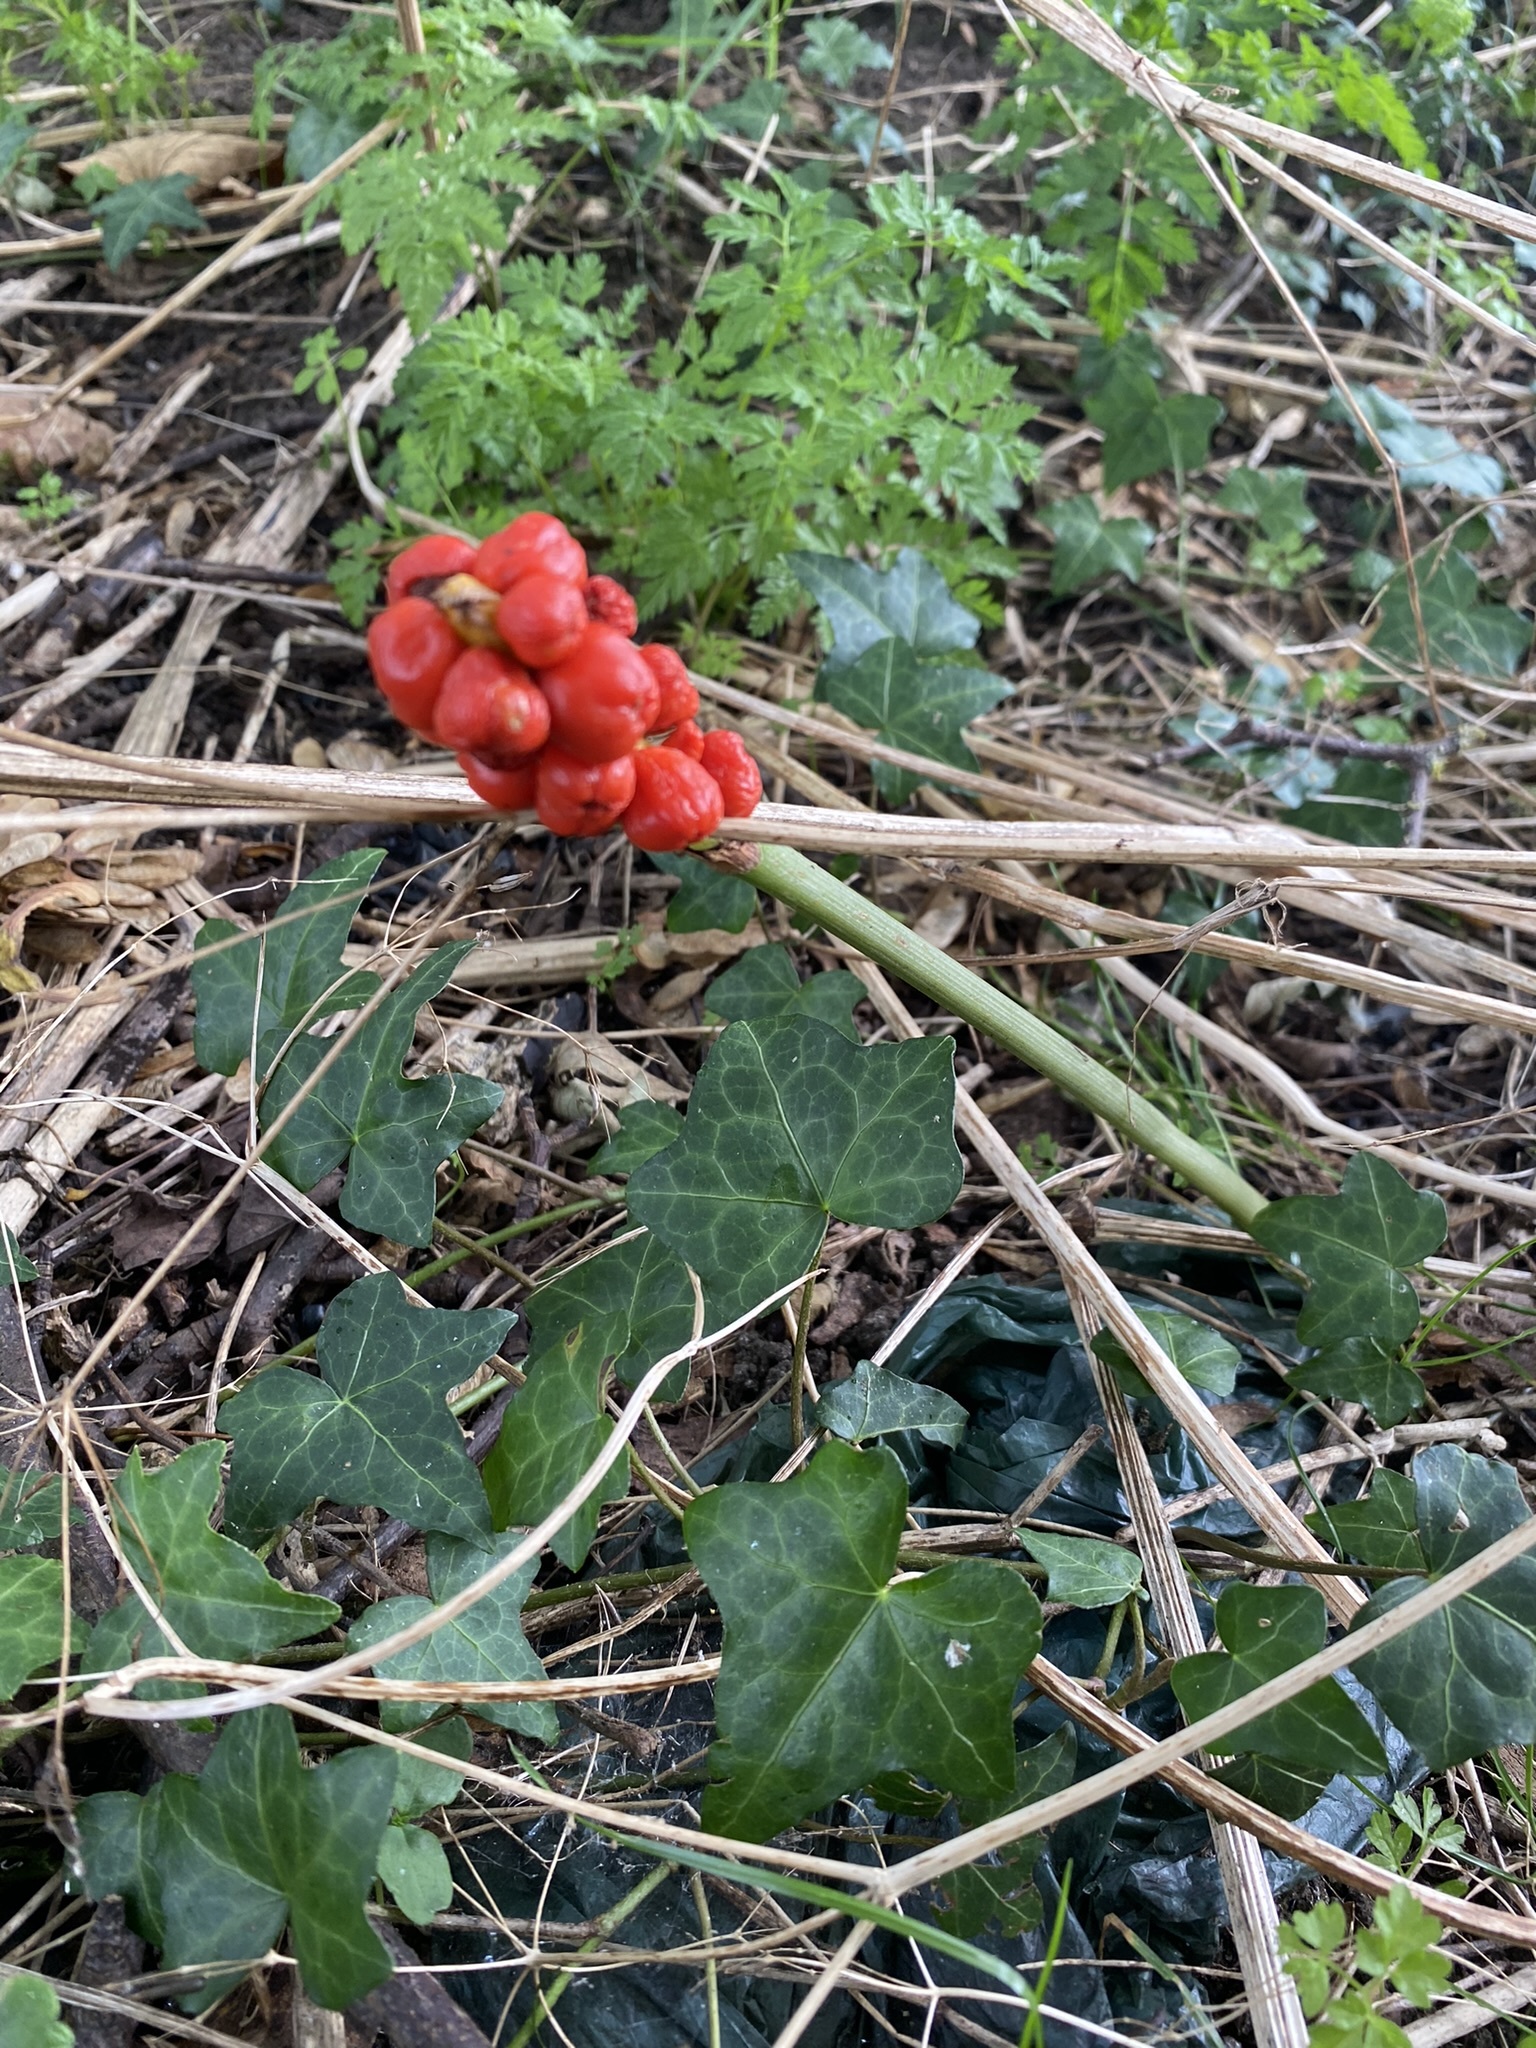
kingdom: Plantae
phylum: Tracheophyta
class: Liliopsida
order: Alismatales
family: Araceae
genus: Arum
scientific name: Arum maculatum
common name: Lords-and-ladies
